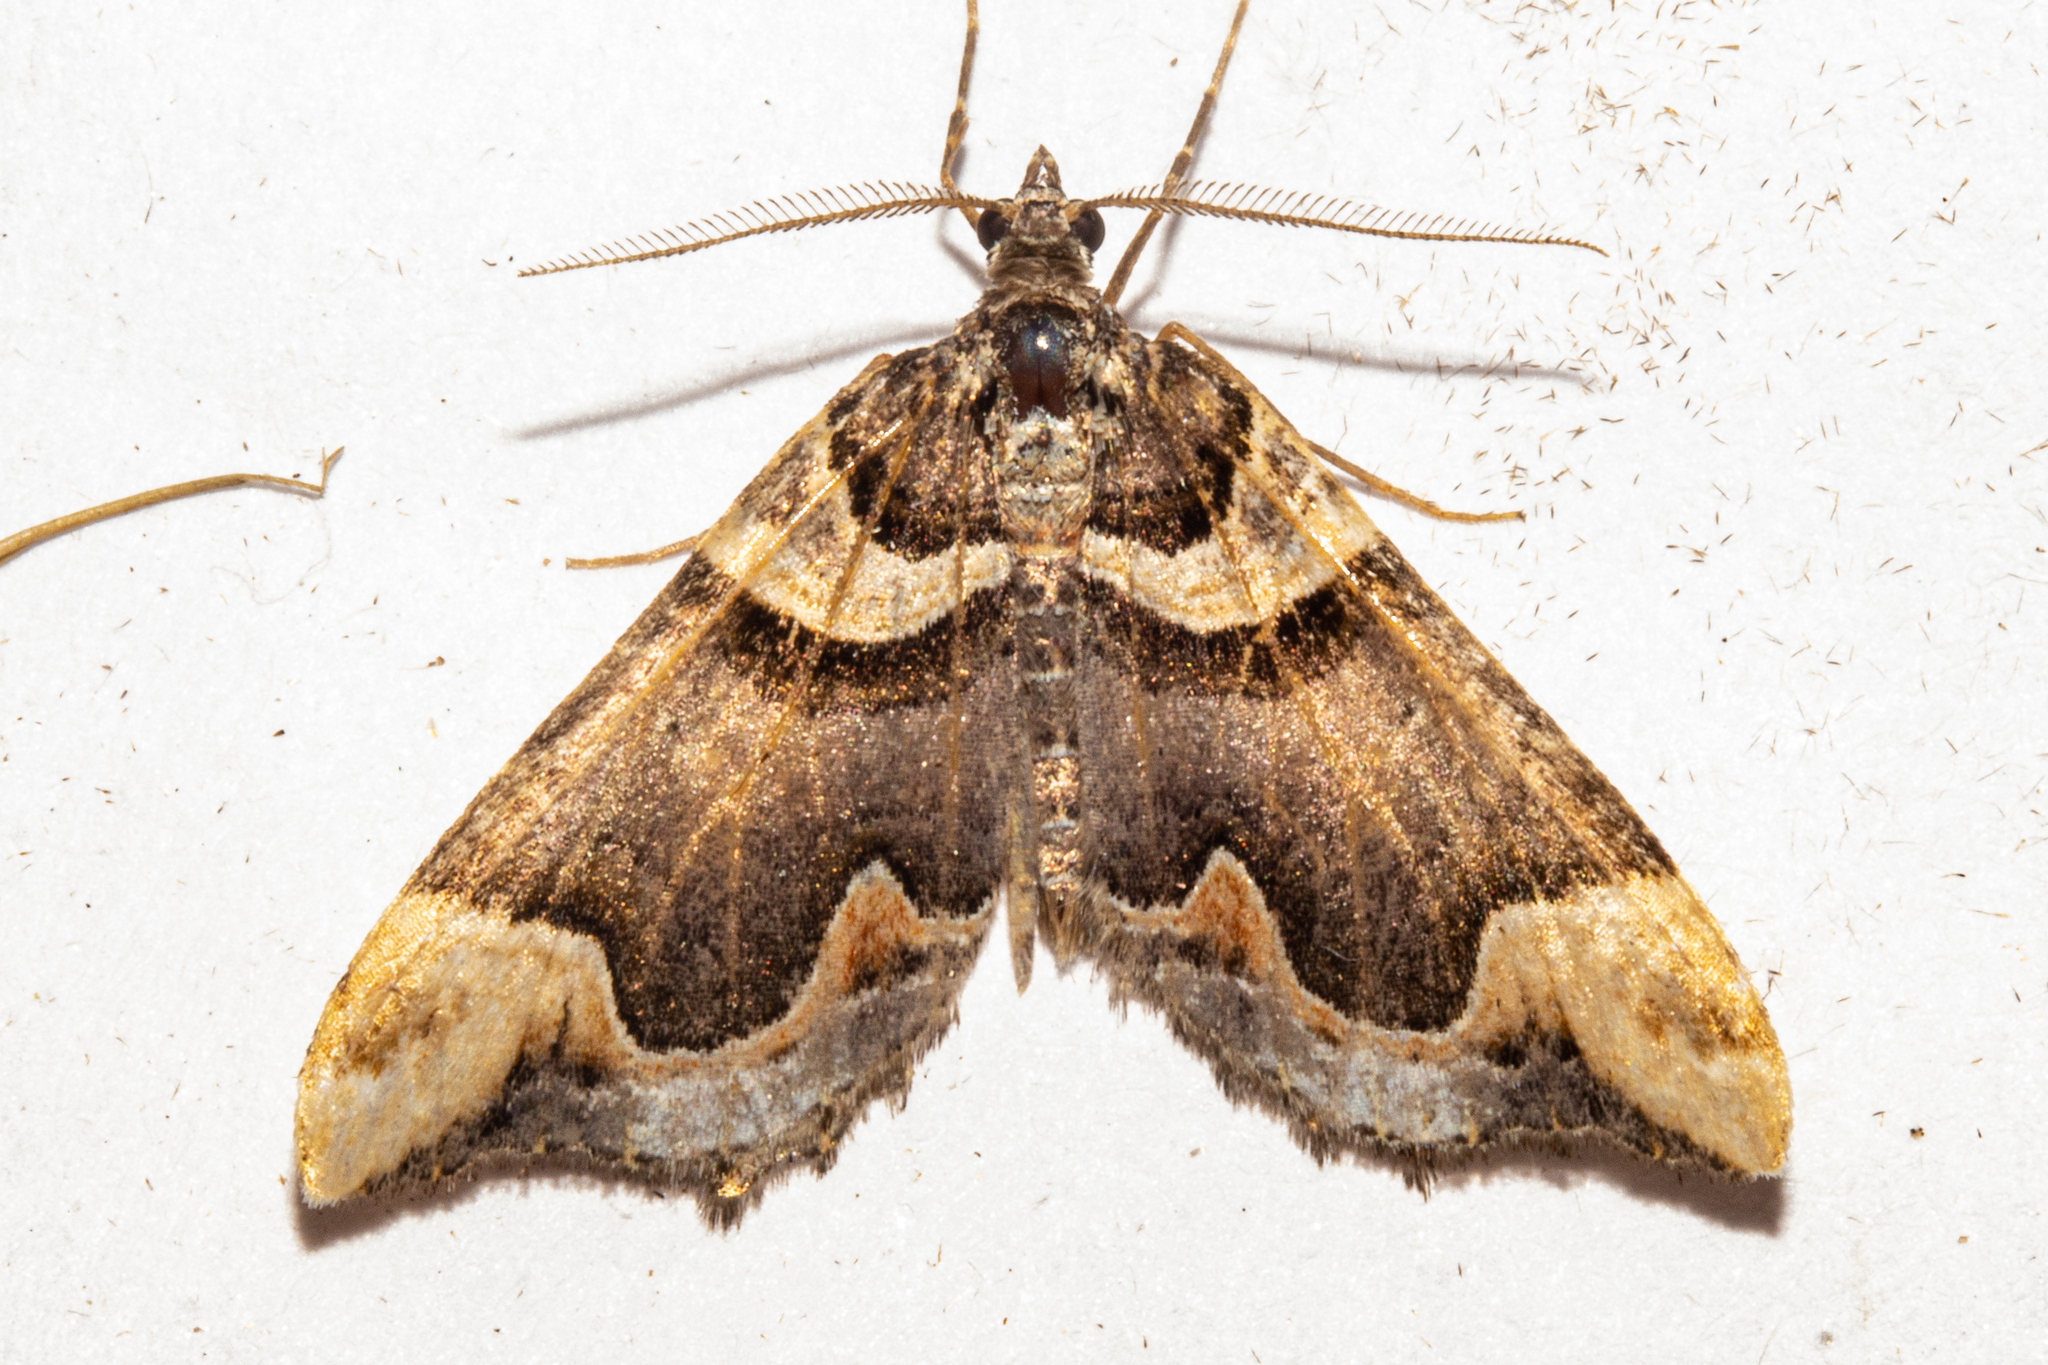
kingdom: Animalia
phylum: Arthropoda
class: Insecta
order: Lepidoptera
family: Geometridae
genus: Asaphodes
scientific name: Asaphodes chlamydota
